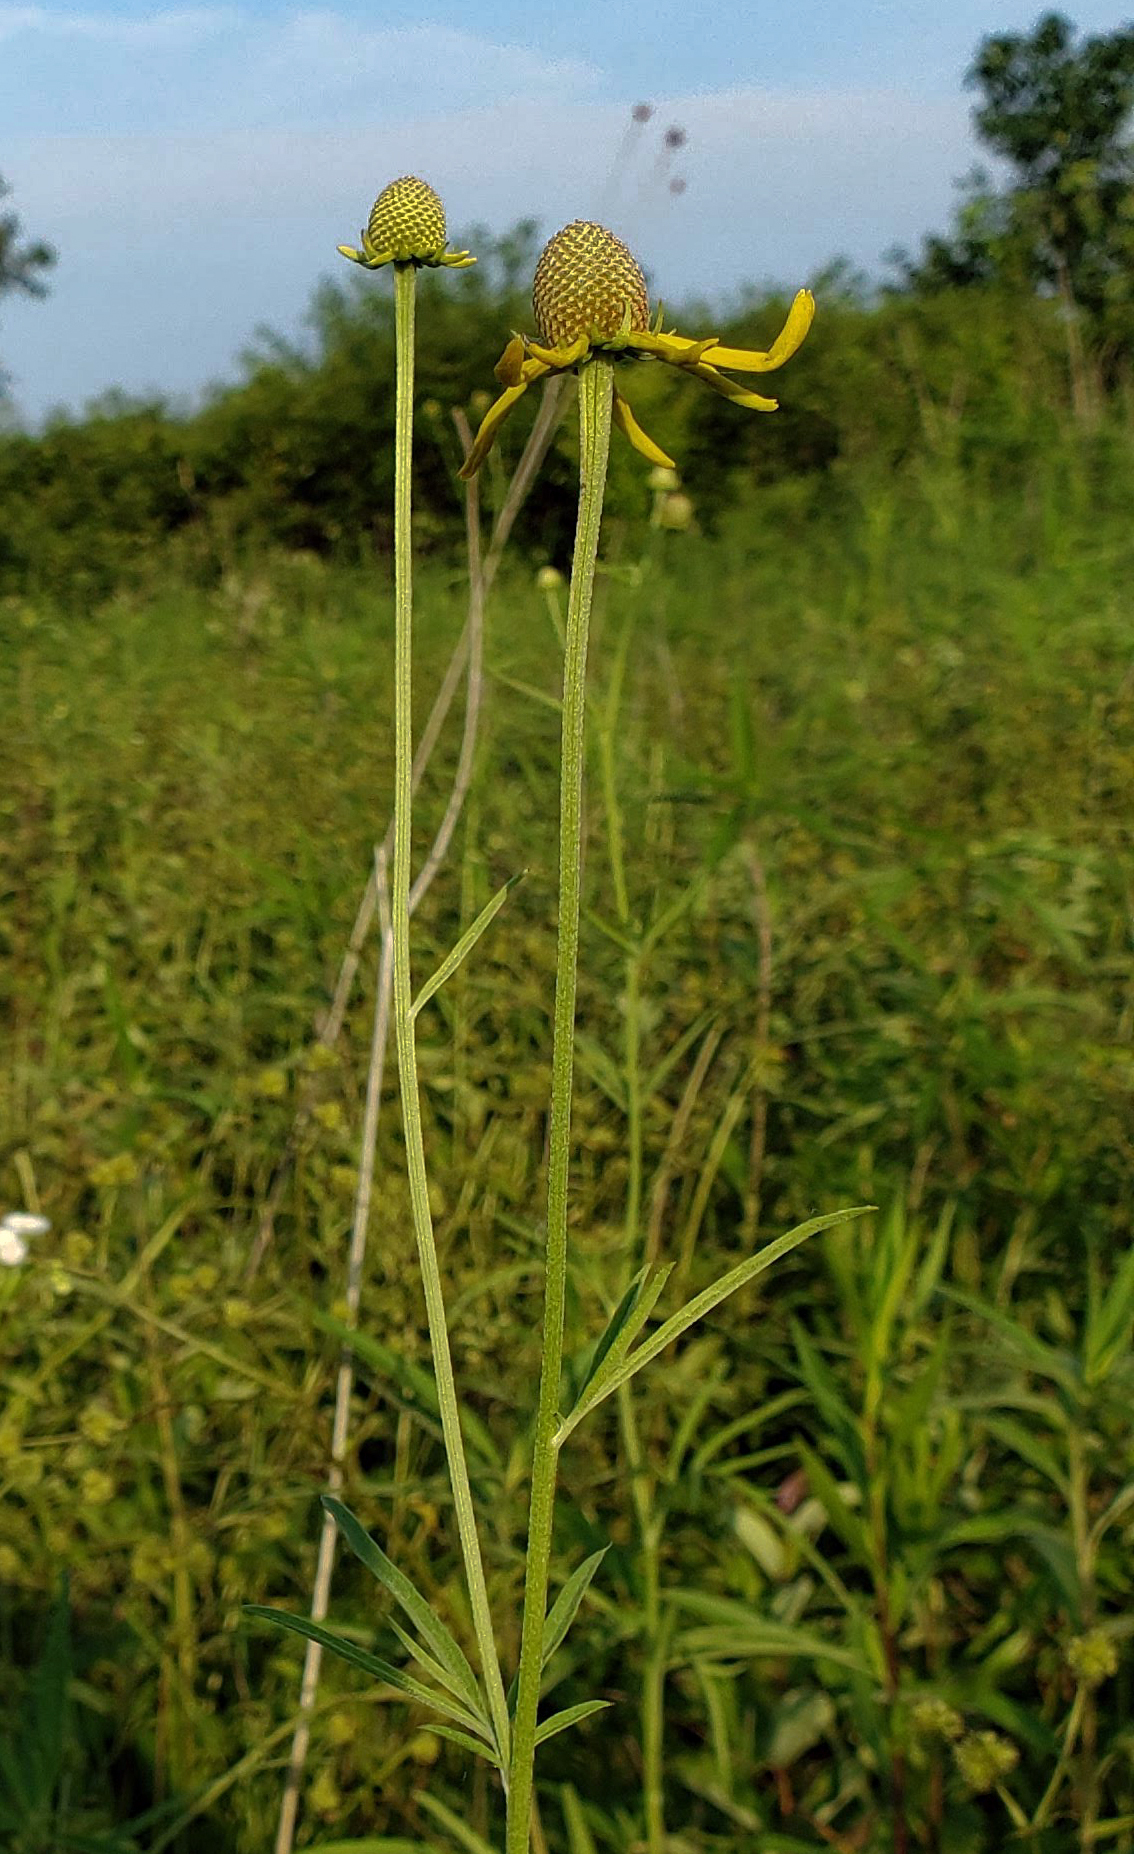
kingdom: Plantae
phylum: Tracheophyta
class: Magnoliopsida
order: Asterales
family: Asteraceae
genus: Ratibida
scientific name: Ratibida pinnata
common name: Drooping prairie-coneflower
